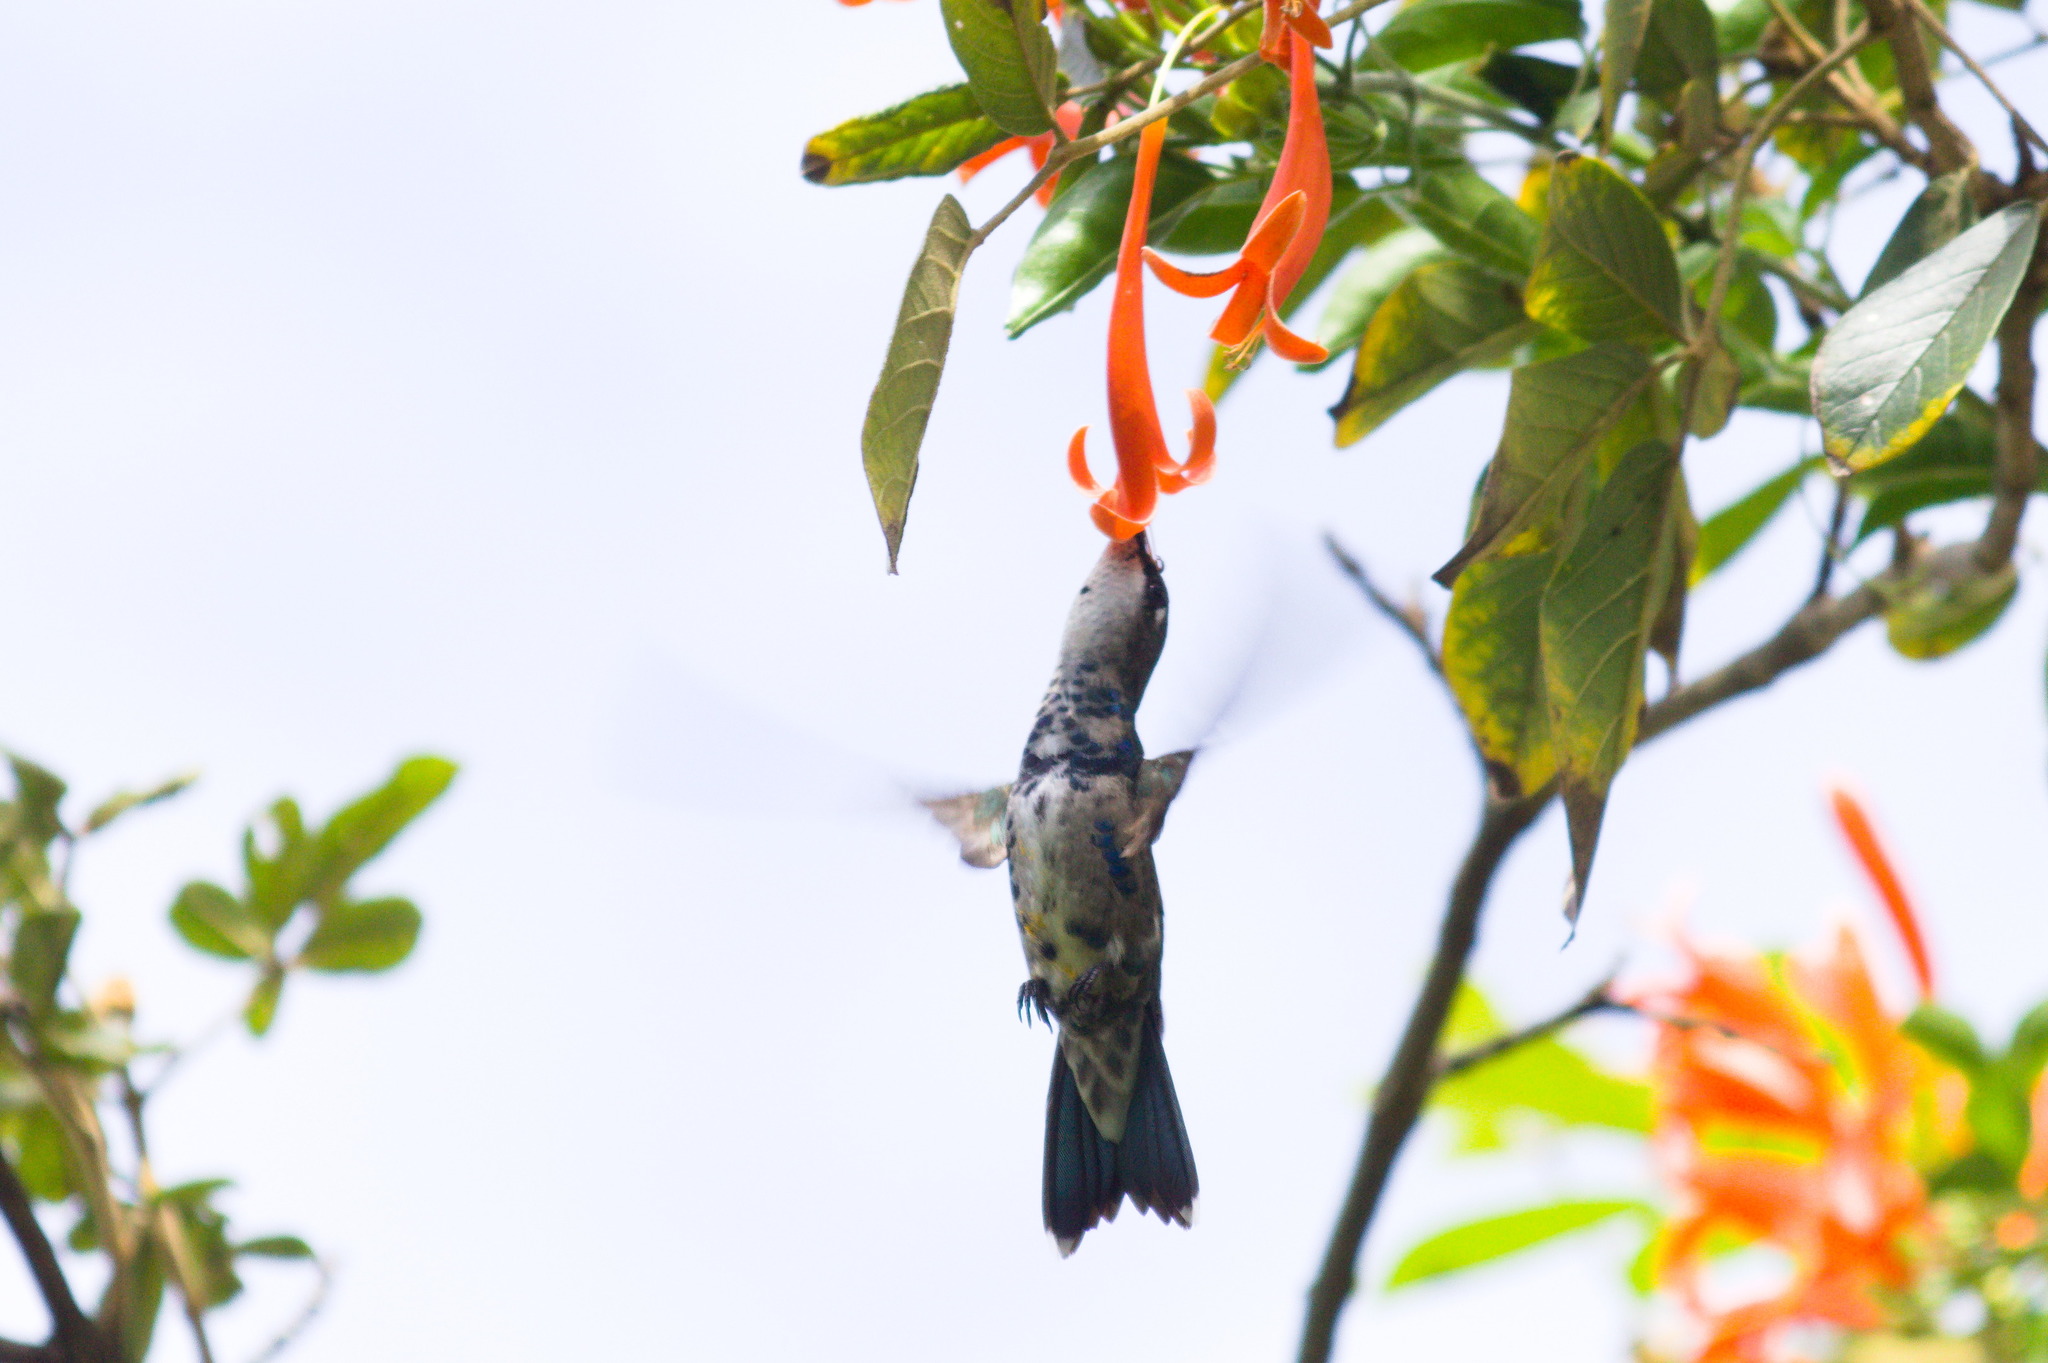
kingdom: Animalia
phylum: Chordata
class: Aves
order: Apodiformes
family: Trochilidae
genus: Heliomaster
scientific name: Heliomaster furcifer
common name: Blue-tufted starthroat
